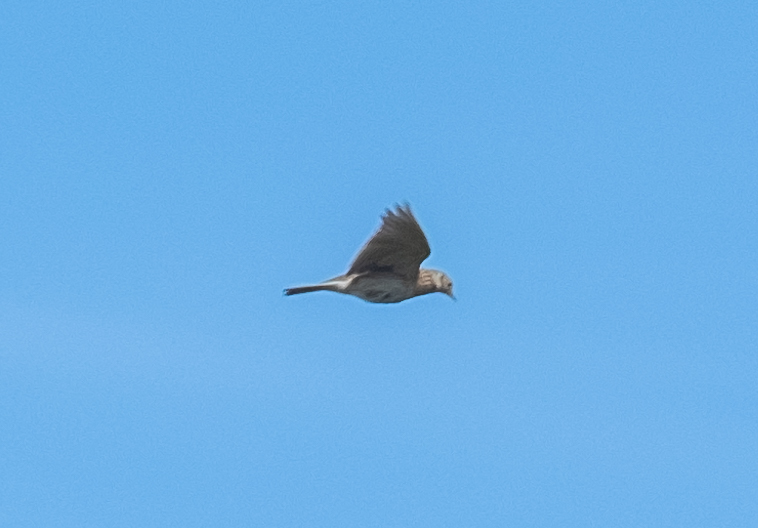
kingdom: Animalia
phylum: Chordata
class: Aves
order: Passeriformes
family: Alaudidae
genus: Alauda
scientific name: Alauda arvensis
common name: Eurasian skylark
